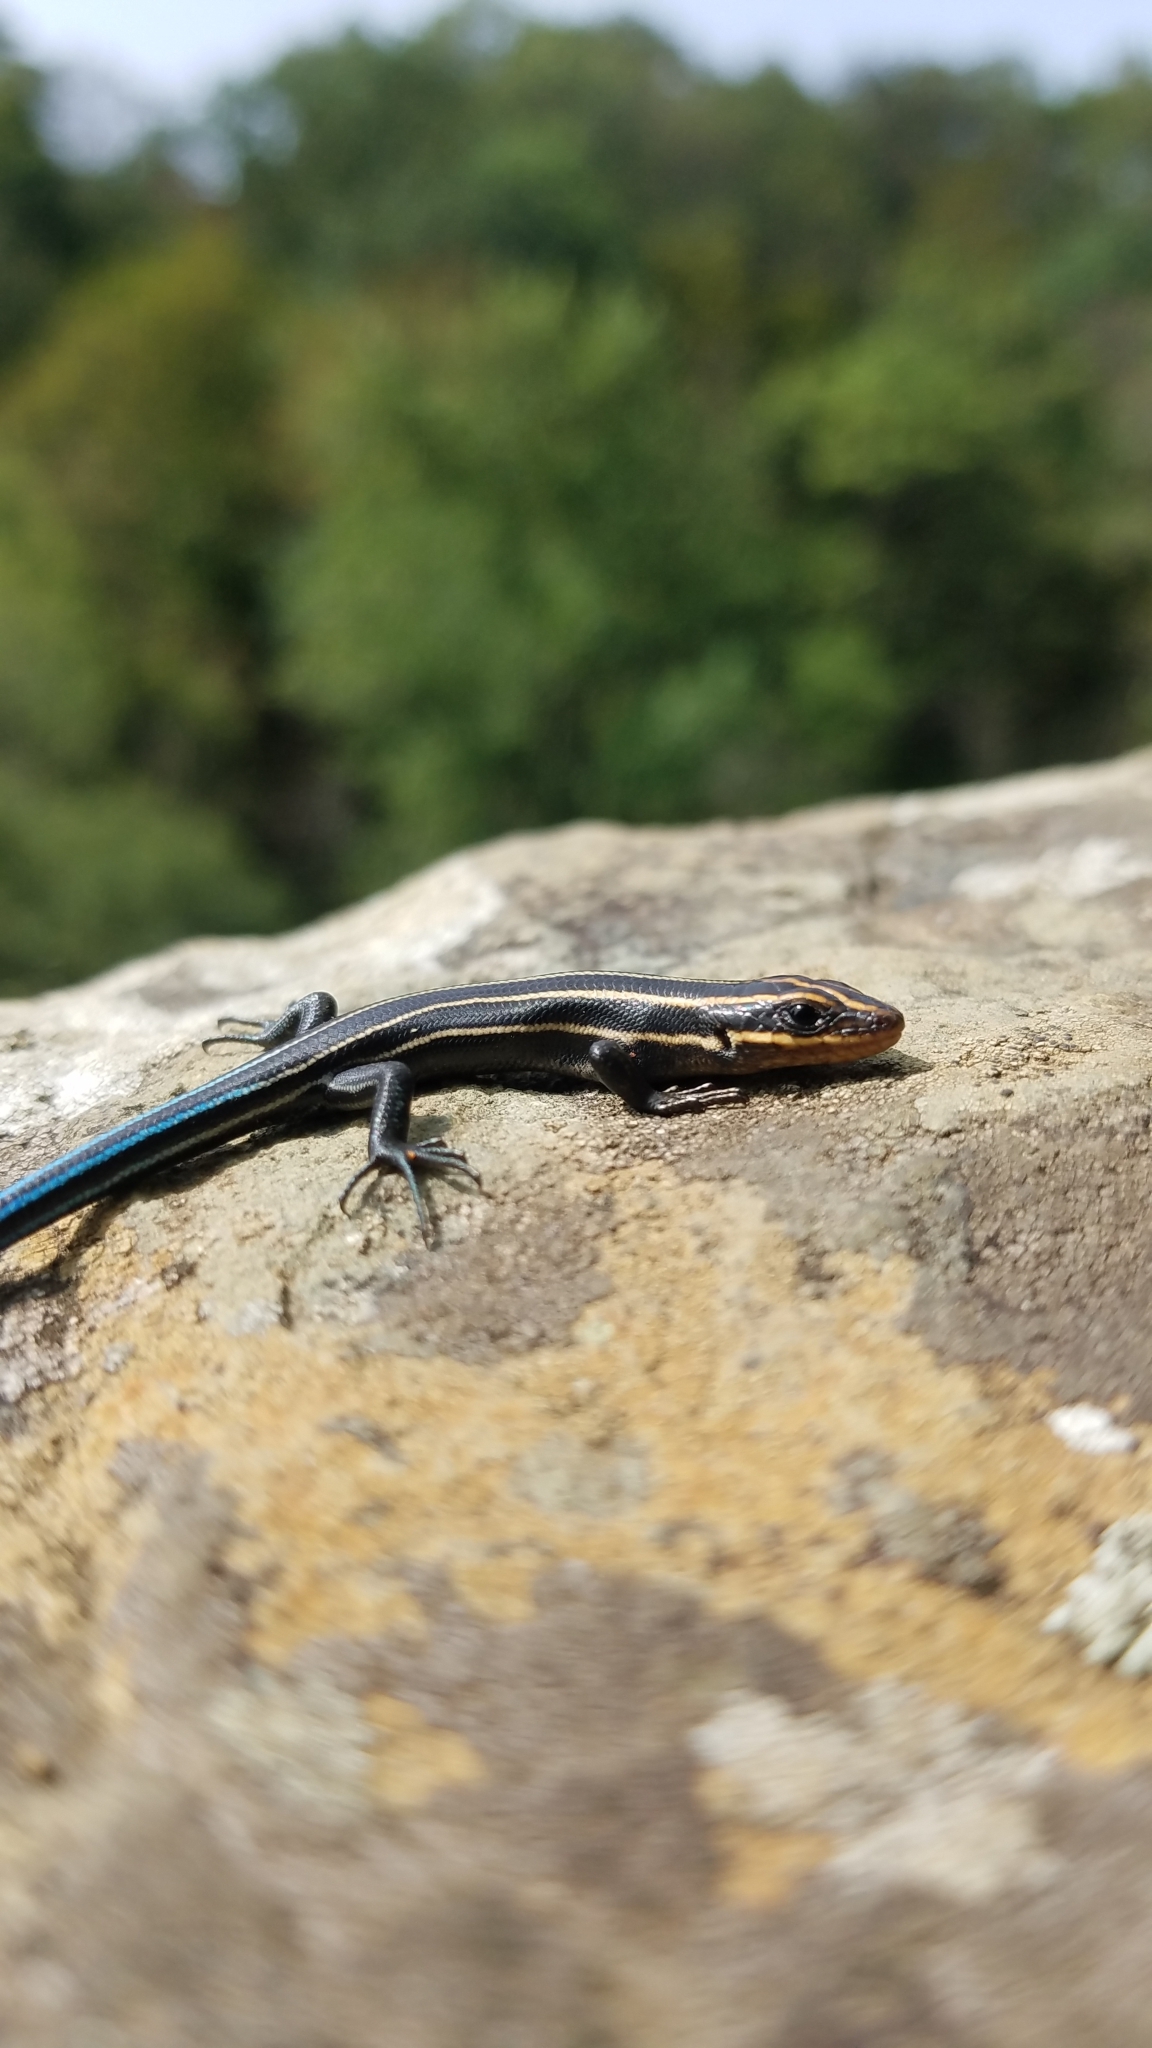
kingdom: Animalia
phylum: Chordata
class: Squamata
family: Scincidae
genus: Plestiodon
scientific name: Plestiodon fasciatus
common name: Five-lined skink
